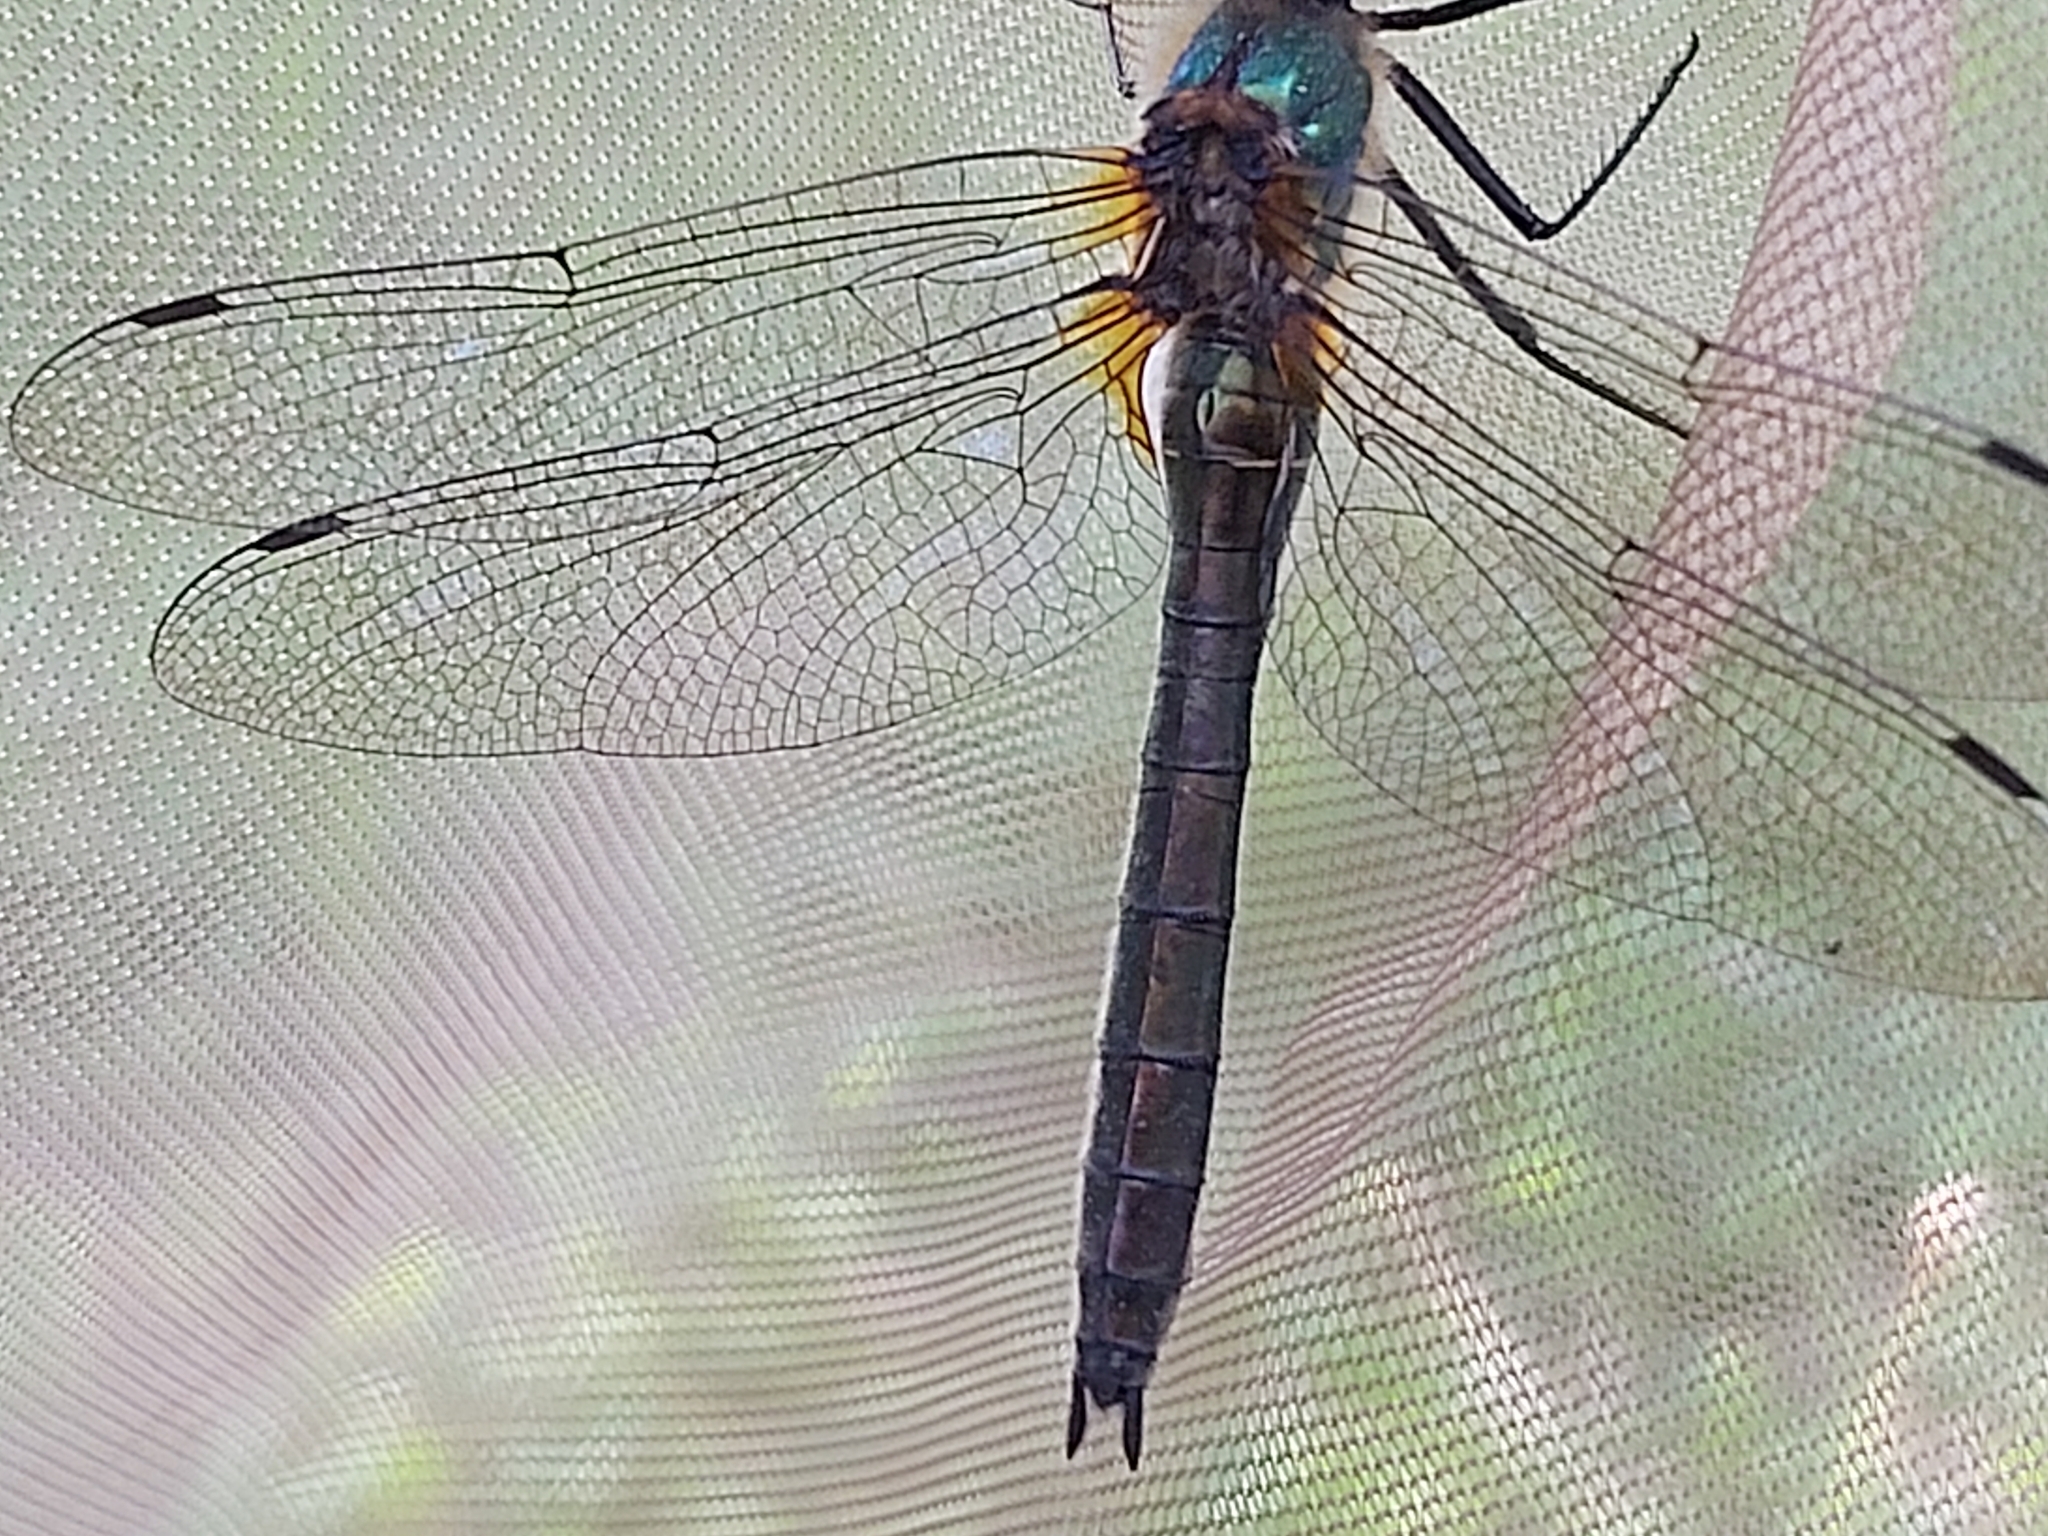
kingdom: Animalia
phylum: Arthropoda
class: Insecta
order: Odonata
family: Corduliidae
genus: Cordulia
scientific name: Cordulia aenea
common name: Downy emerald
